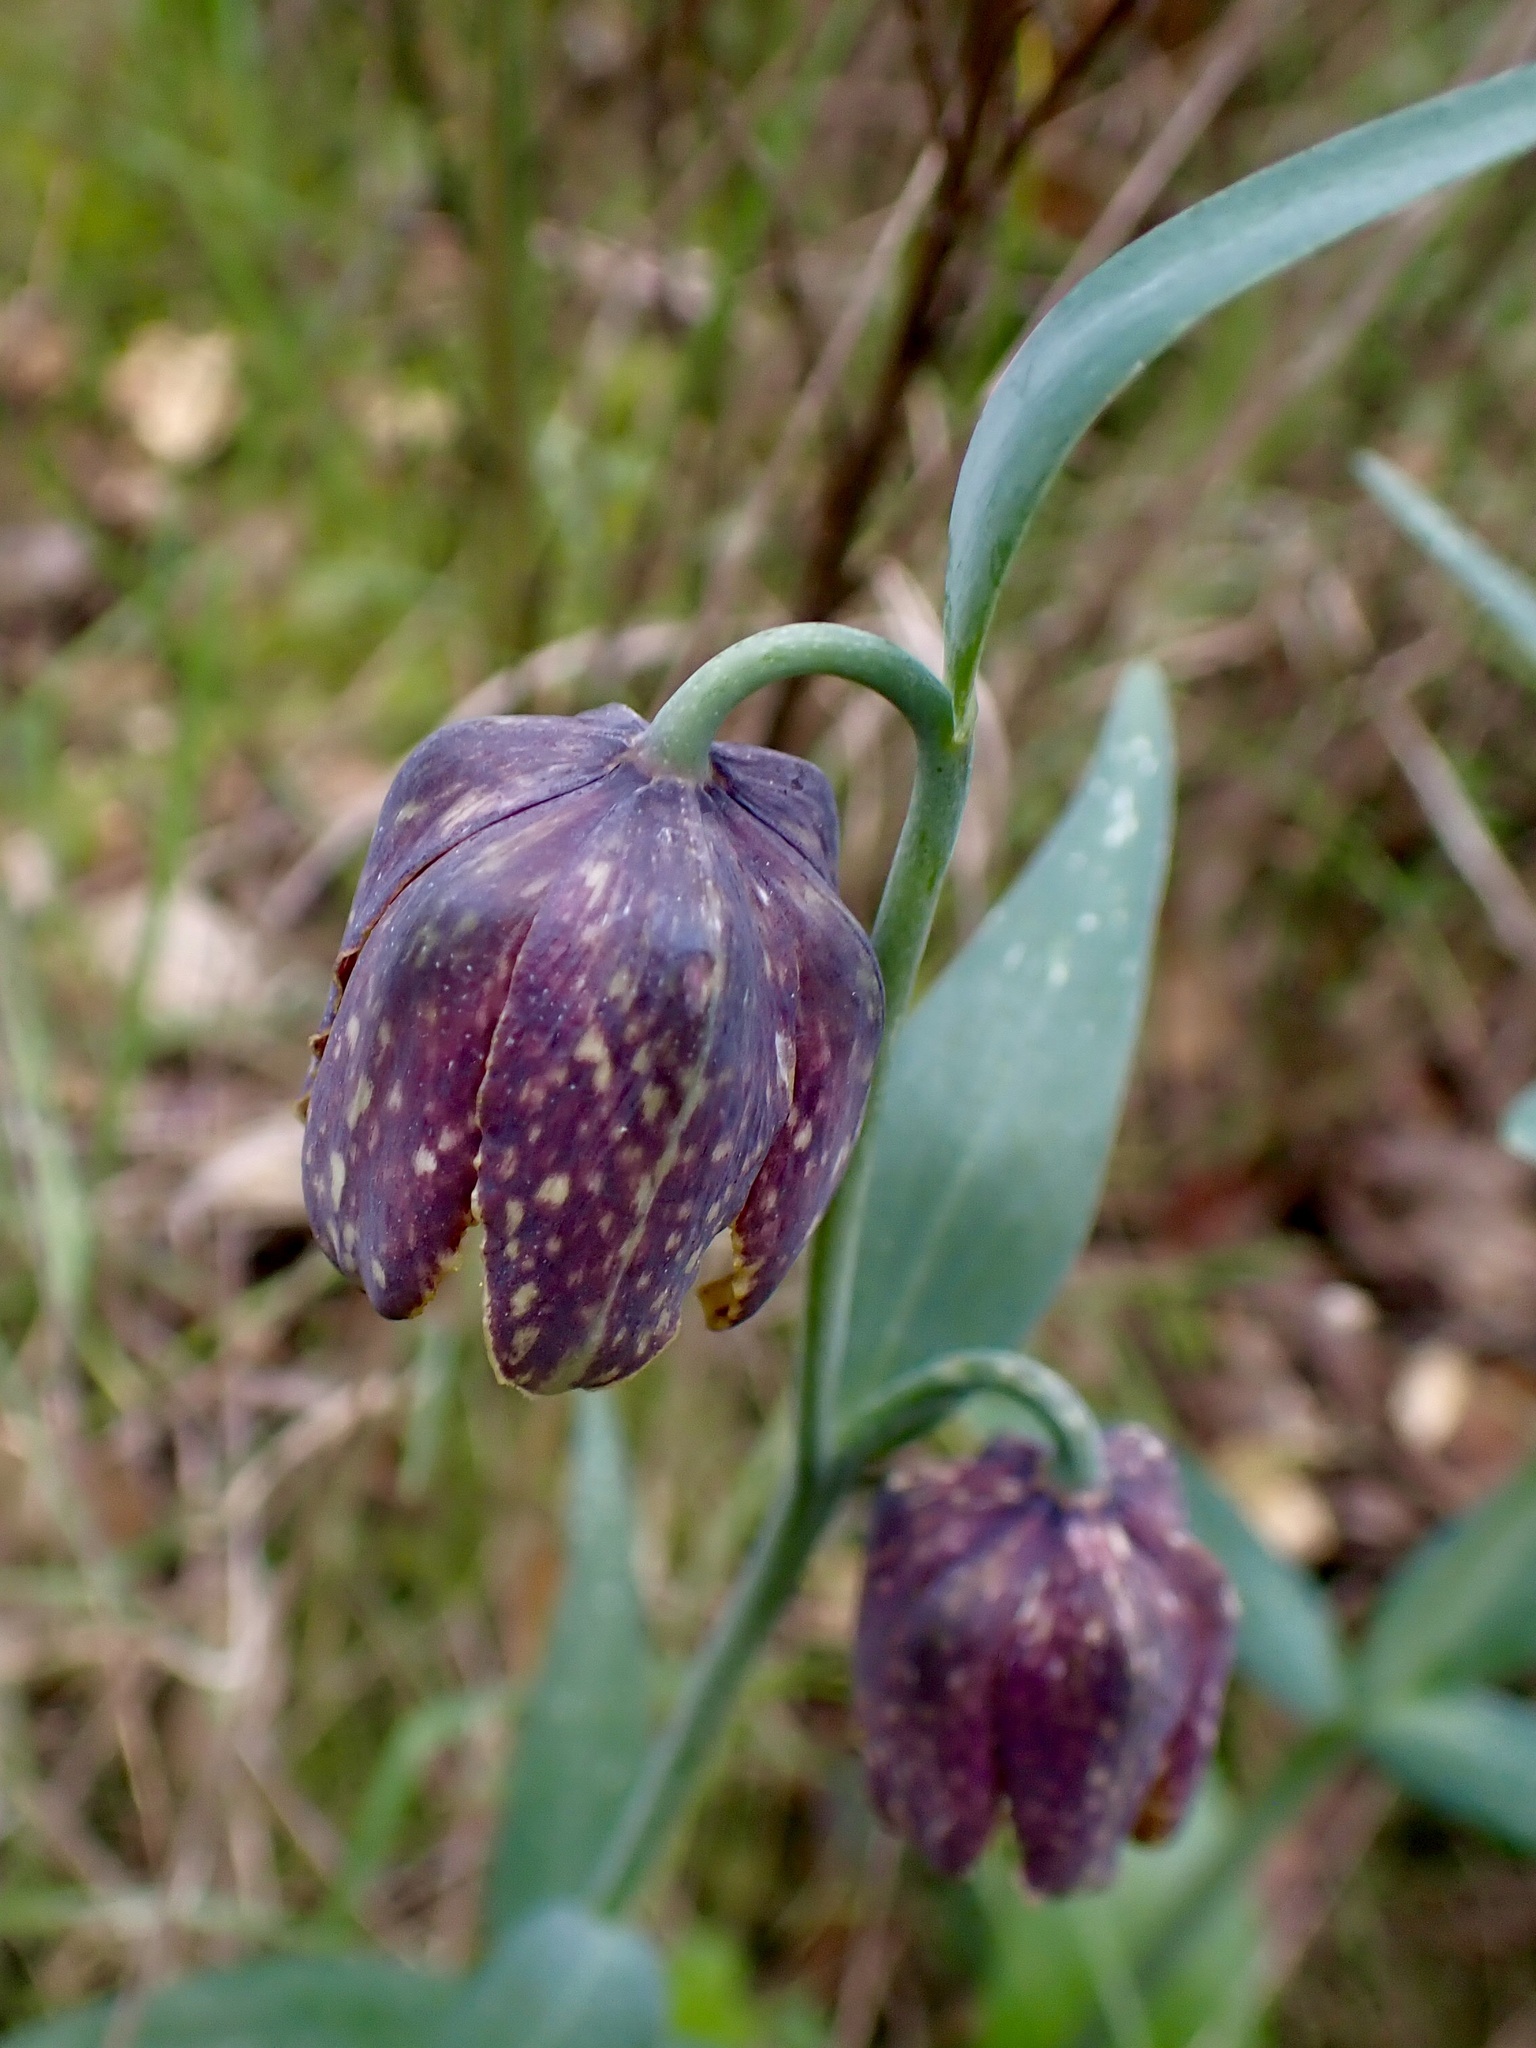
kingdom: Plantae
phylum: Tracheophyta
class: Liliopsida
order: Liliales
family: Liliaceae
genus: Fritillaria
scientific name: Fritillaria affinis
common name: Ojai fritillary
